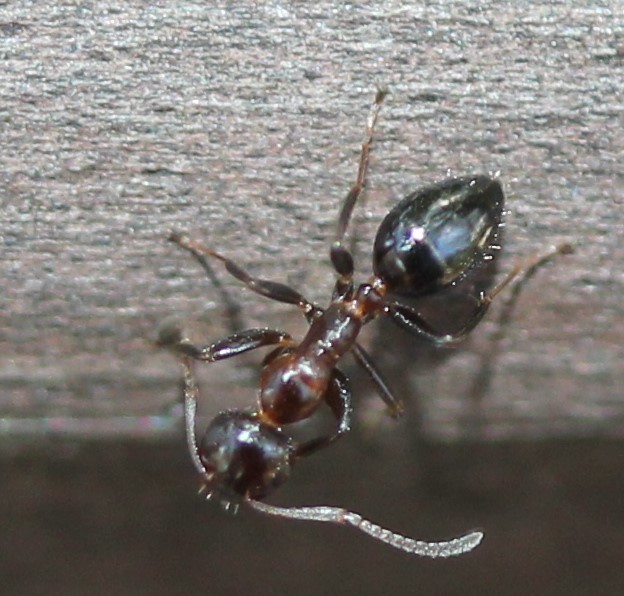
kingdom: Animalia
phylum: Arthropoda
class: Insecta
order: Hymenoptera
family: Formicidae
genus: Colobopsis
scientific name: Colobopsis impressa
